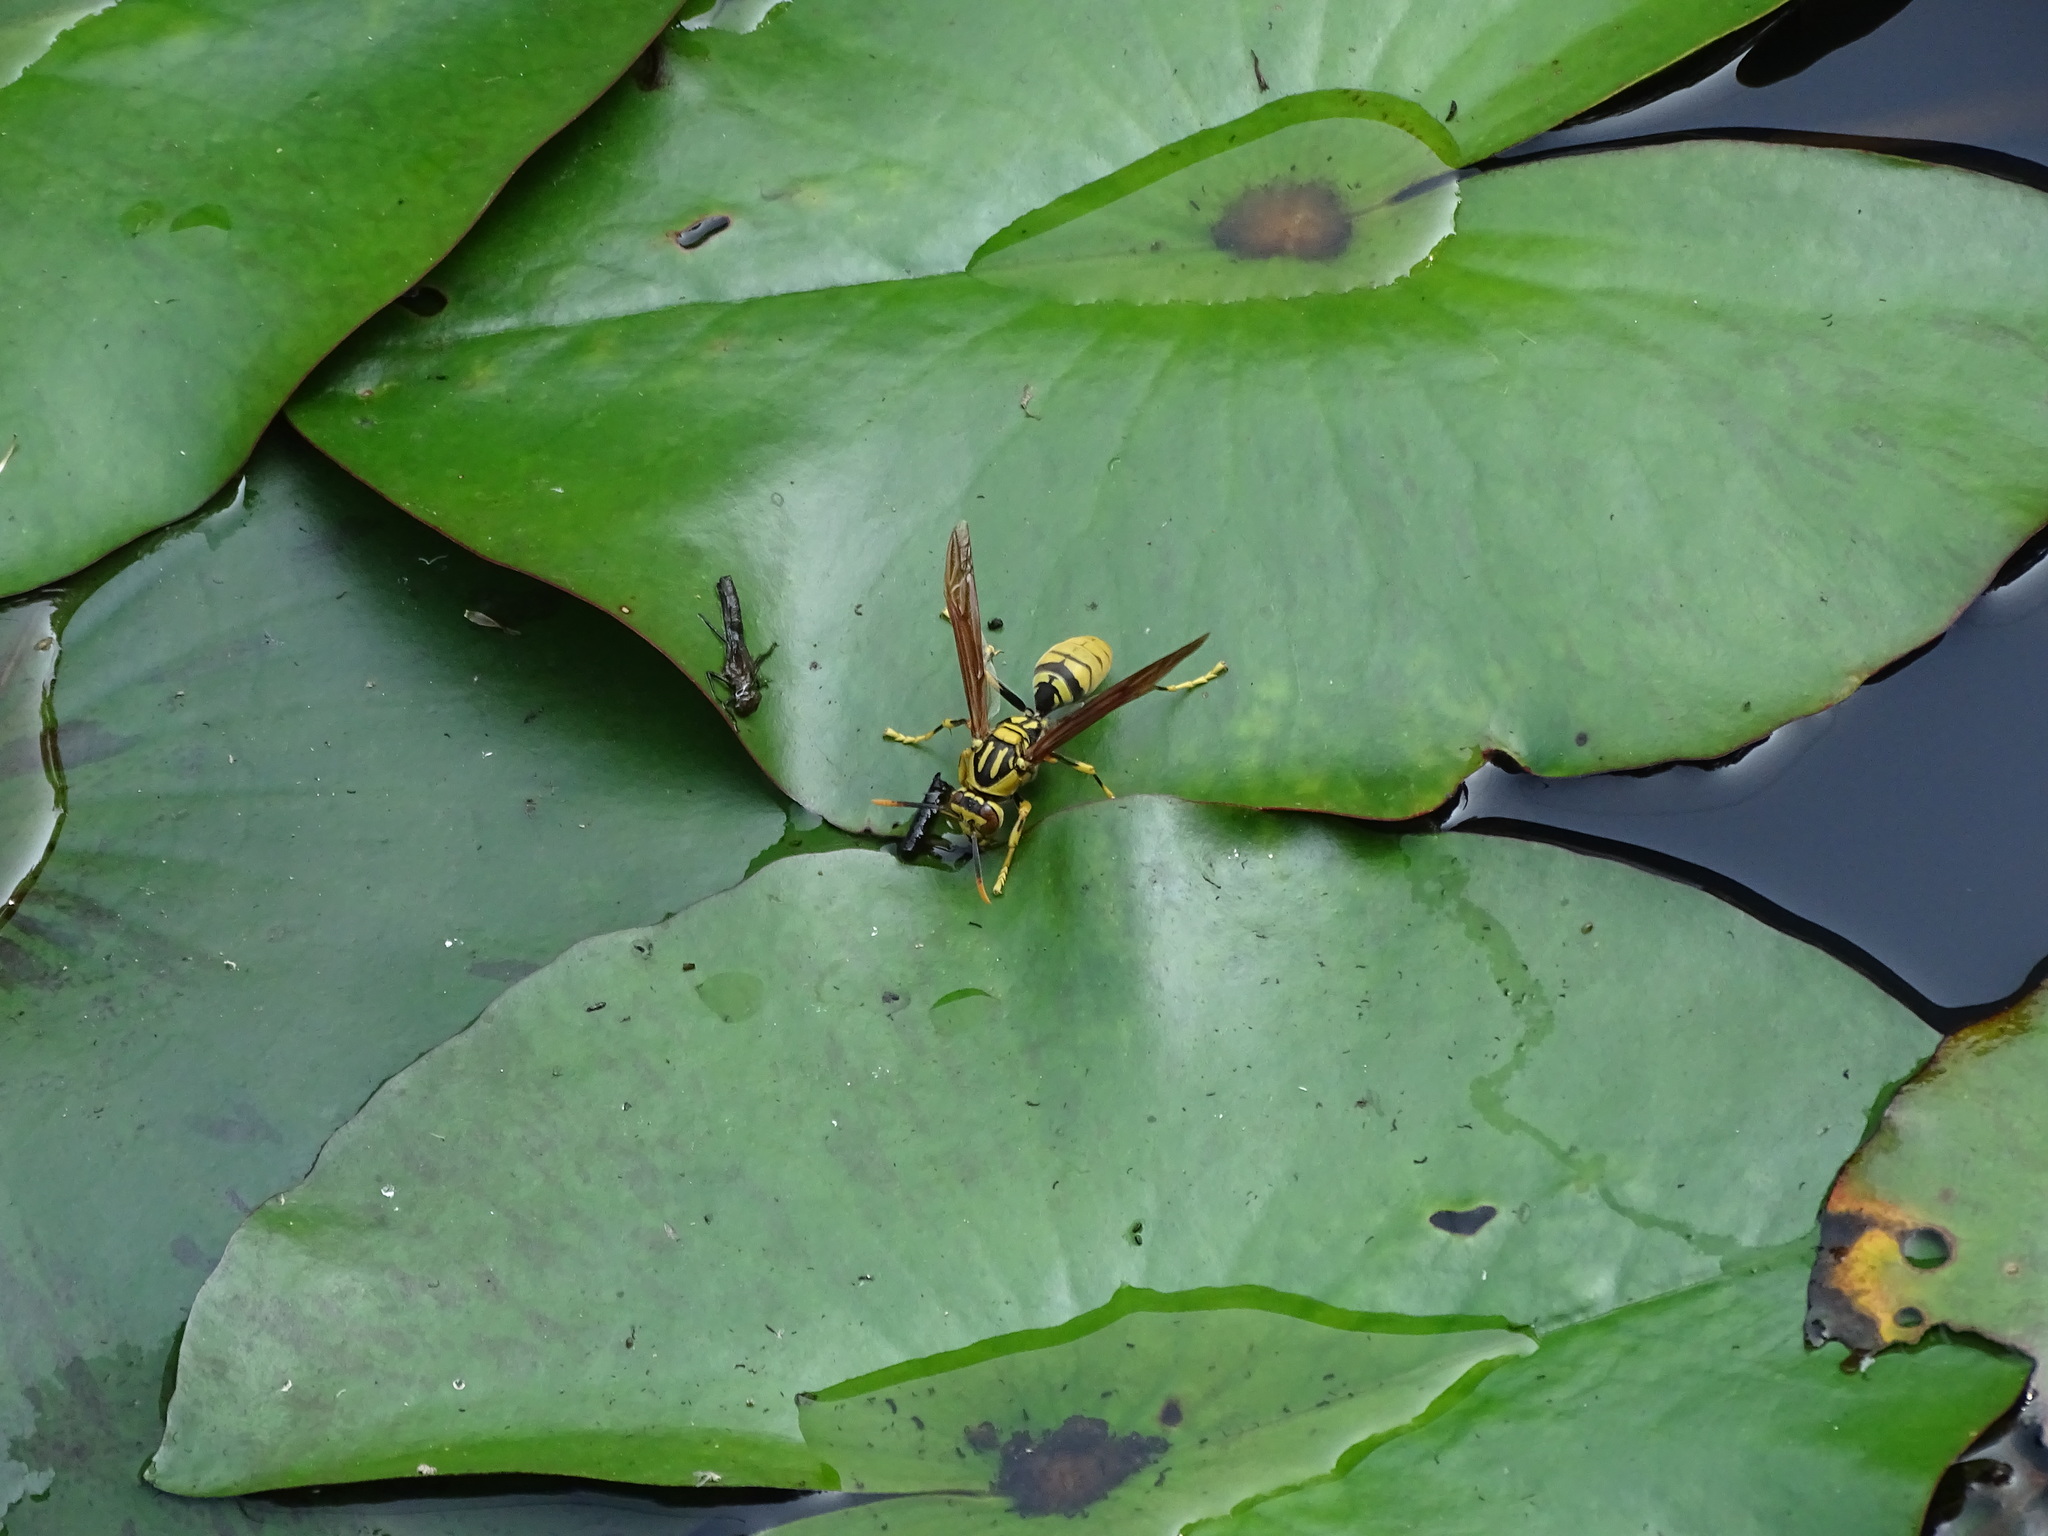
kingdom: Animalia
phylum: Arthropoda
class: Insecta
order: Hymenoptera
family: Eumenidae
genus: Polistes
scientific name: Polistes rothneyi
